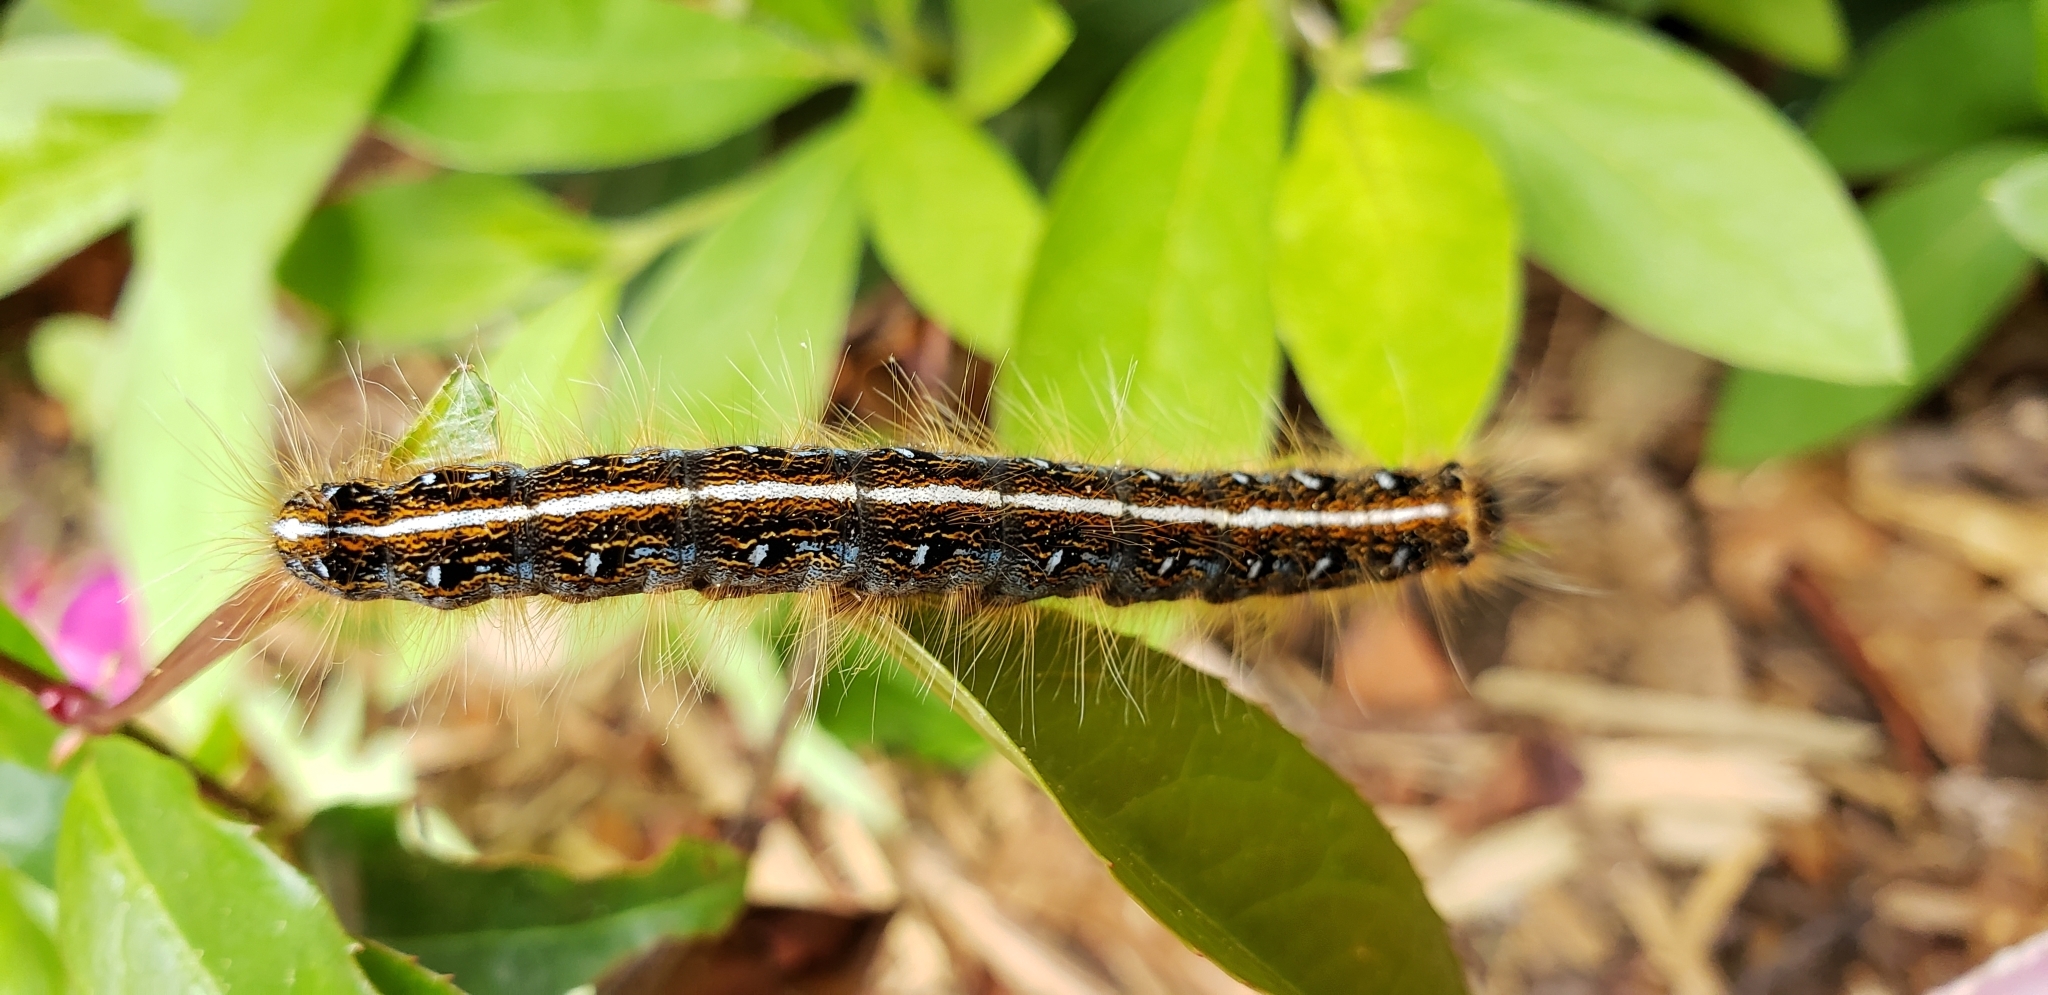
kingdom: Animalia
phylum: Arthropoda
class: Insecta
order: Lepidoptera
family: Lasiocampidae
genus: Malacosoma
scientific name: Malacosoma americana
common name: Eastern tent caterpillar moth
